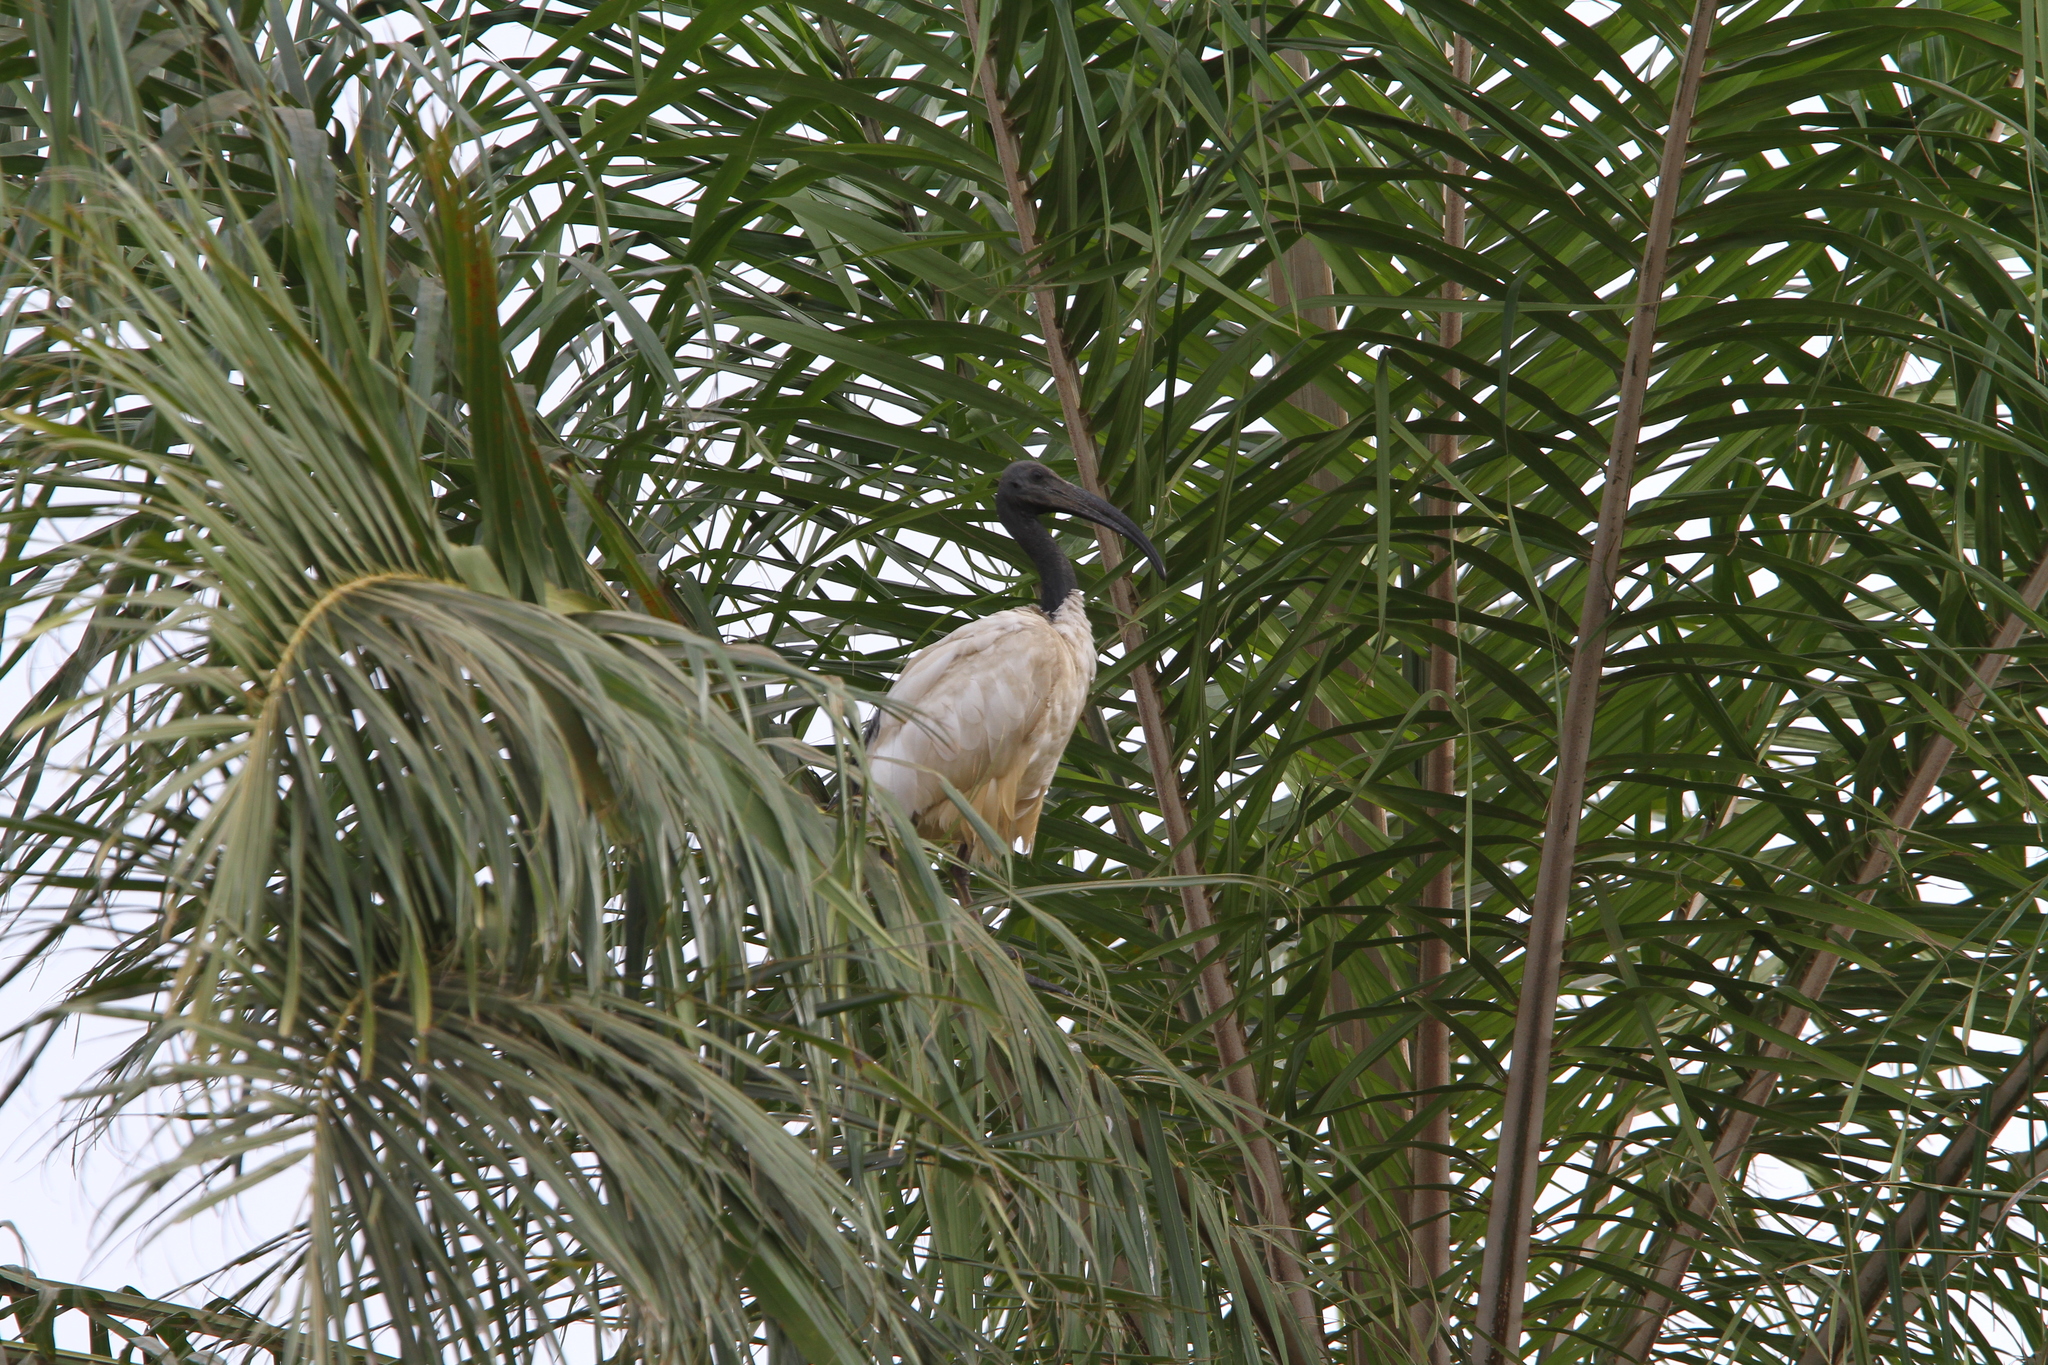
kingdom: Animalia
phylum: Chordata
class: Aves
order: Pelecaniformes
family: Threskiornithidae
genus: Threskiornis
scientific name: Threskiornis aethiopicus
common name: Sacred ibis
